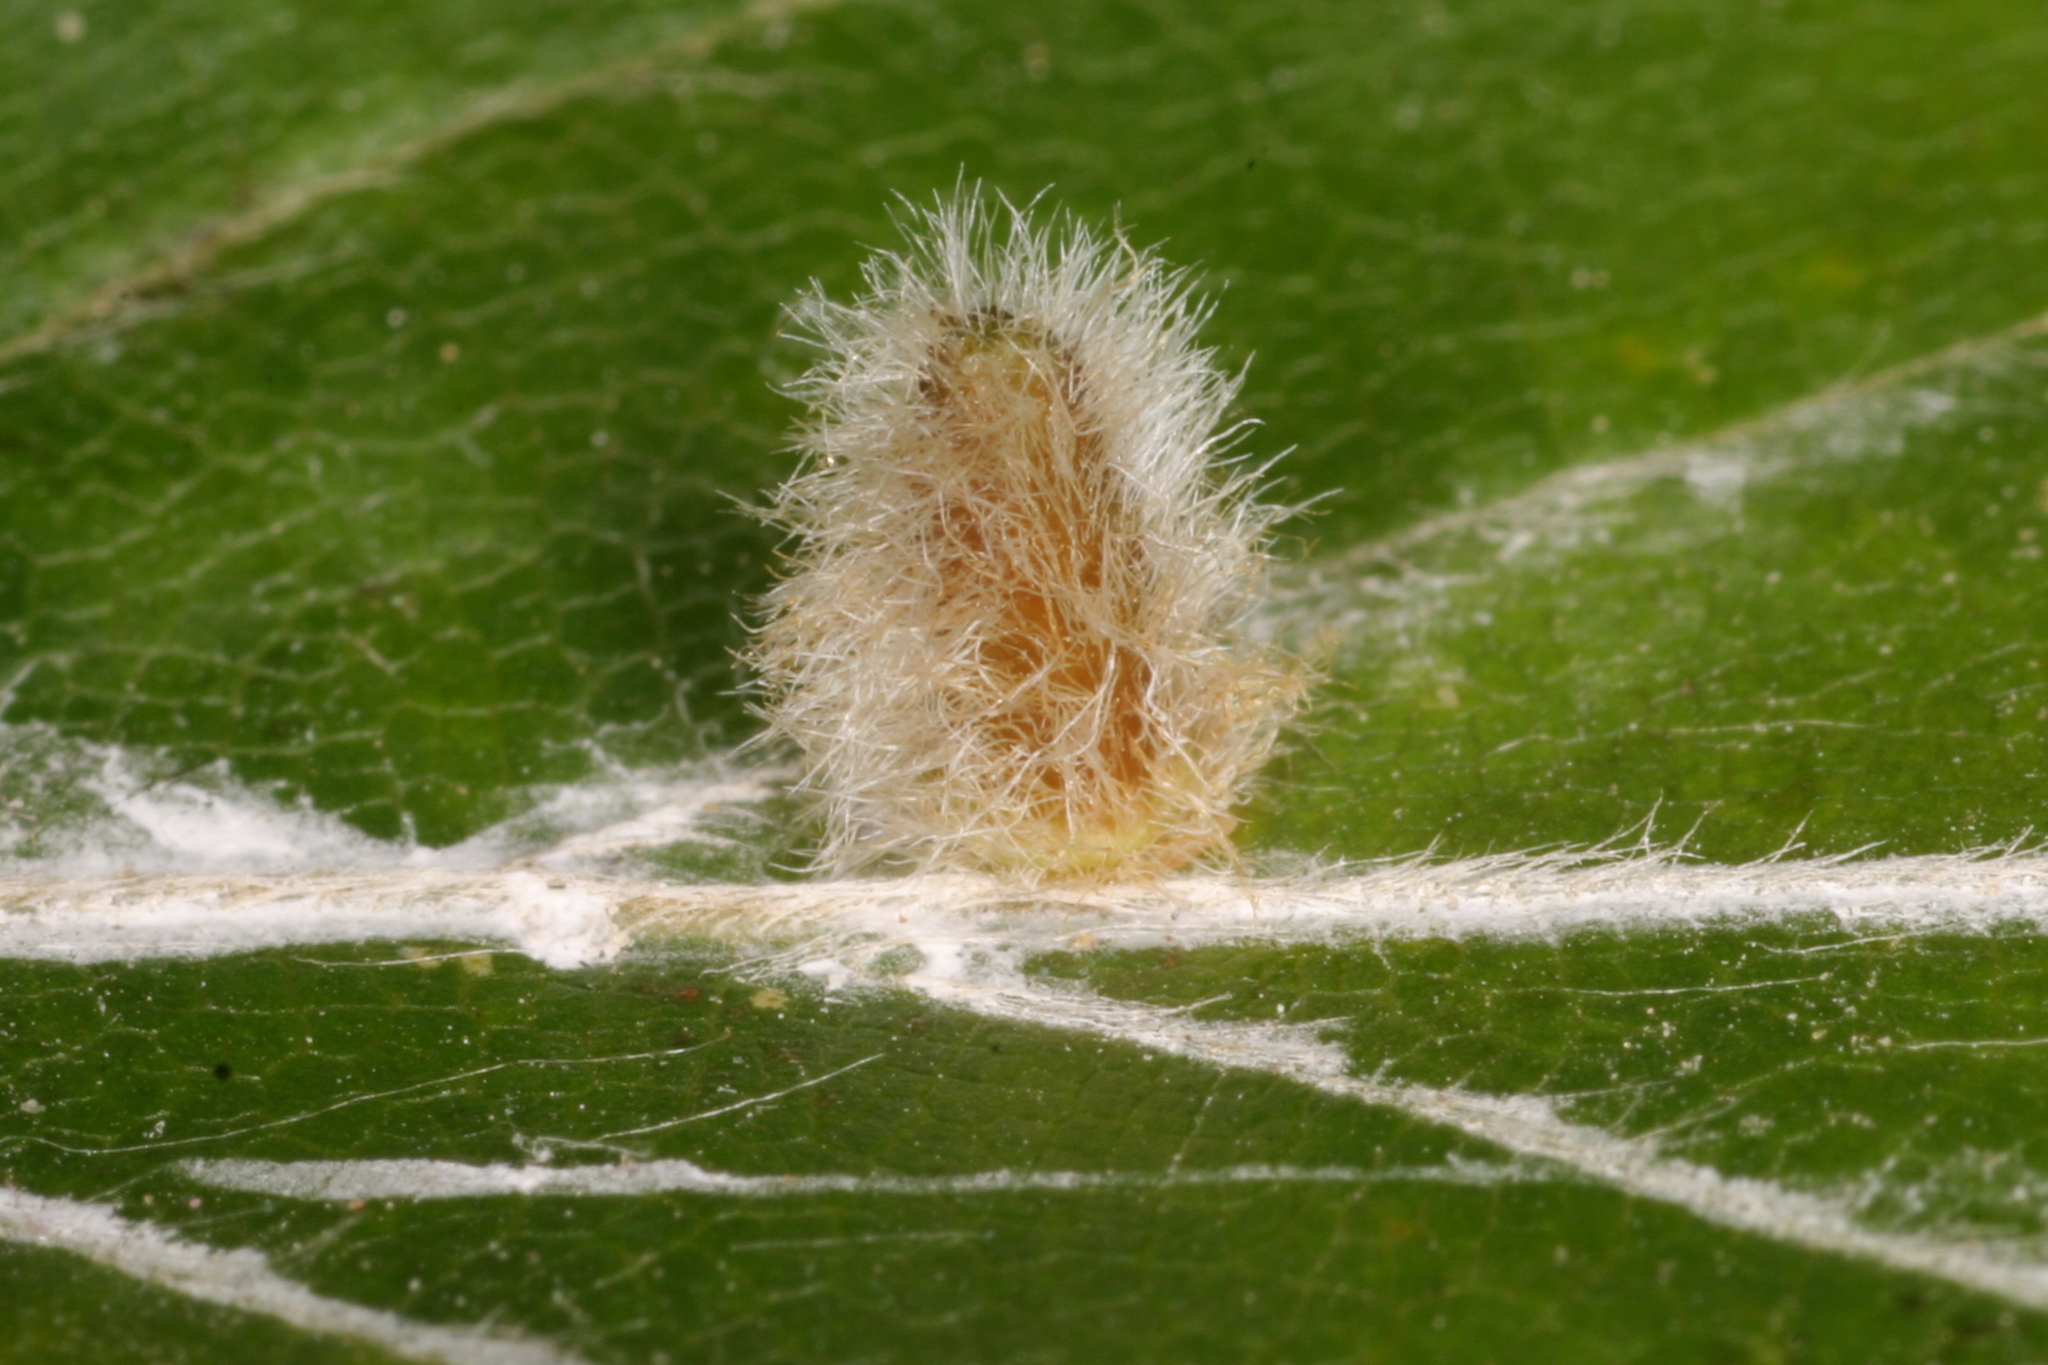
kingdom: Animalia
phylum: Arthropoda
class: Insecta
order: Diptera
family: Cecidomyiidae
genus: Hartigiola
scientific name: Hartigiola annulipes
